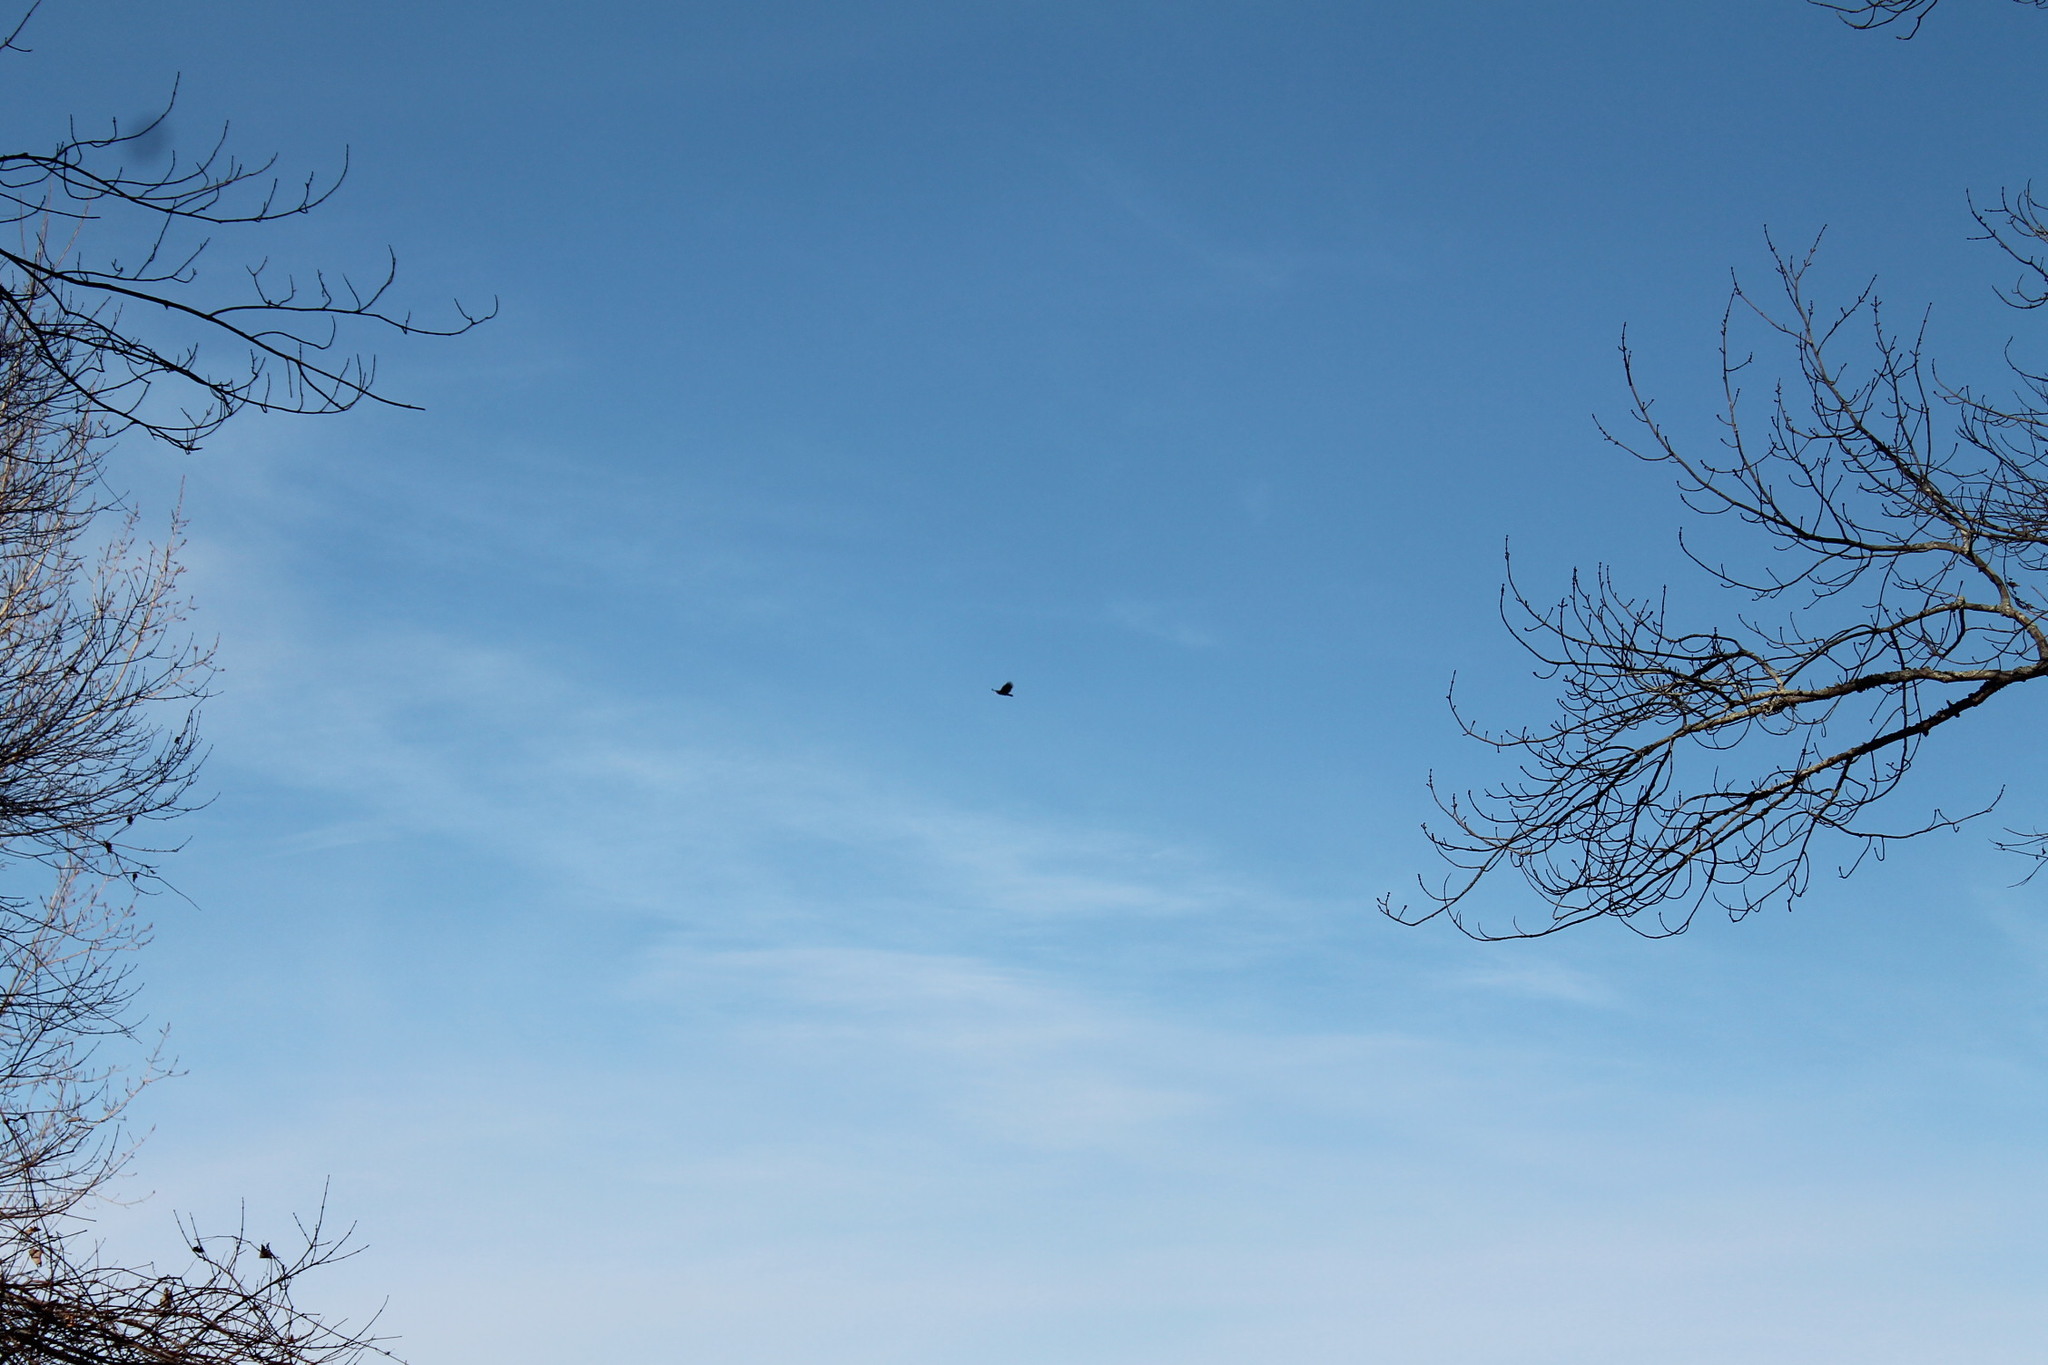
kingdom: Animalia
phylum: Chordata
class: Aves
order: Accipitriformes
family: Cathartidae
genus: Cathartes
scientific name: Cathartes aura
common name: Turkey vulture
